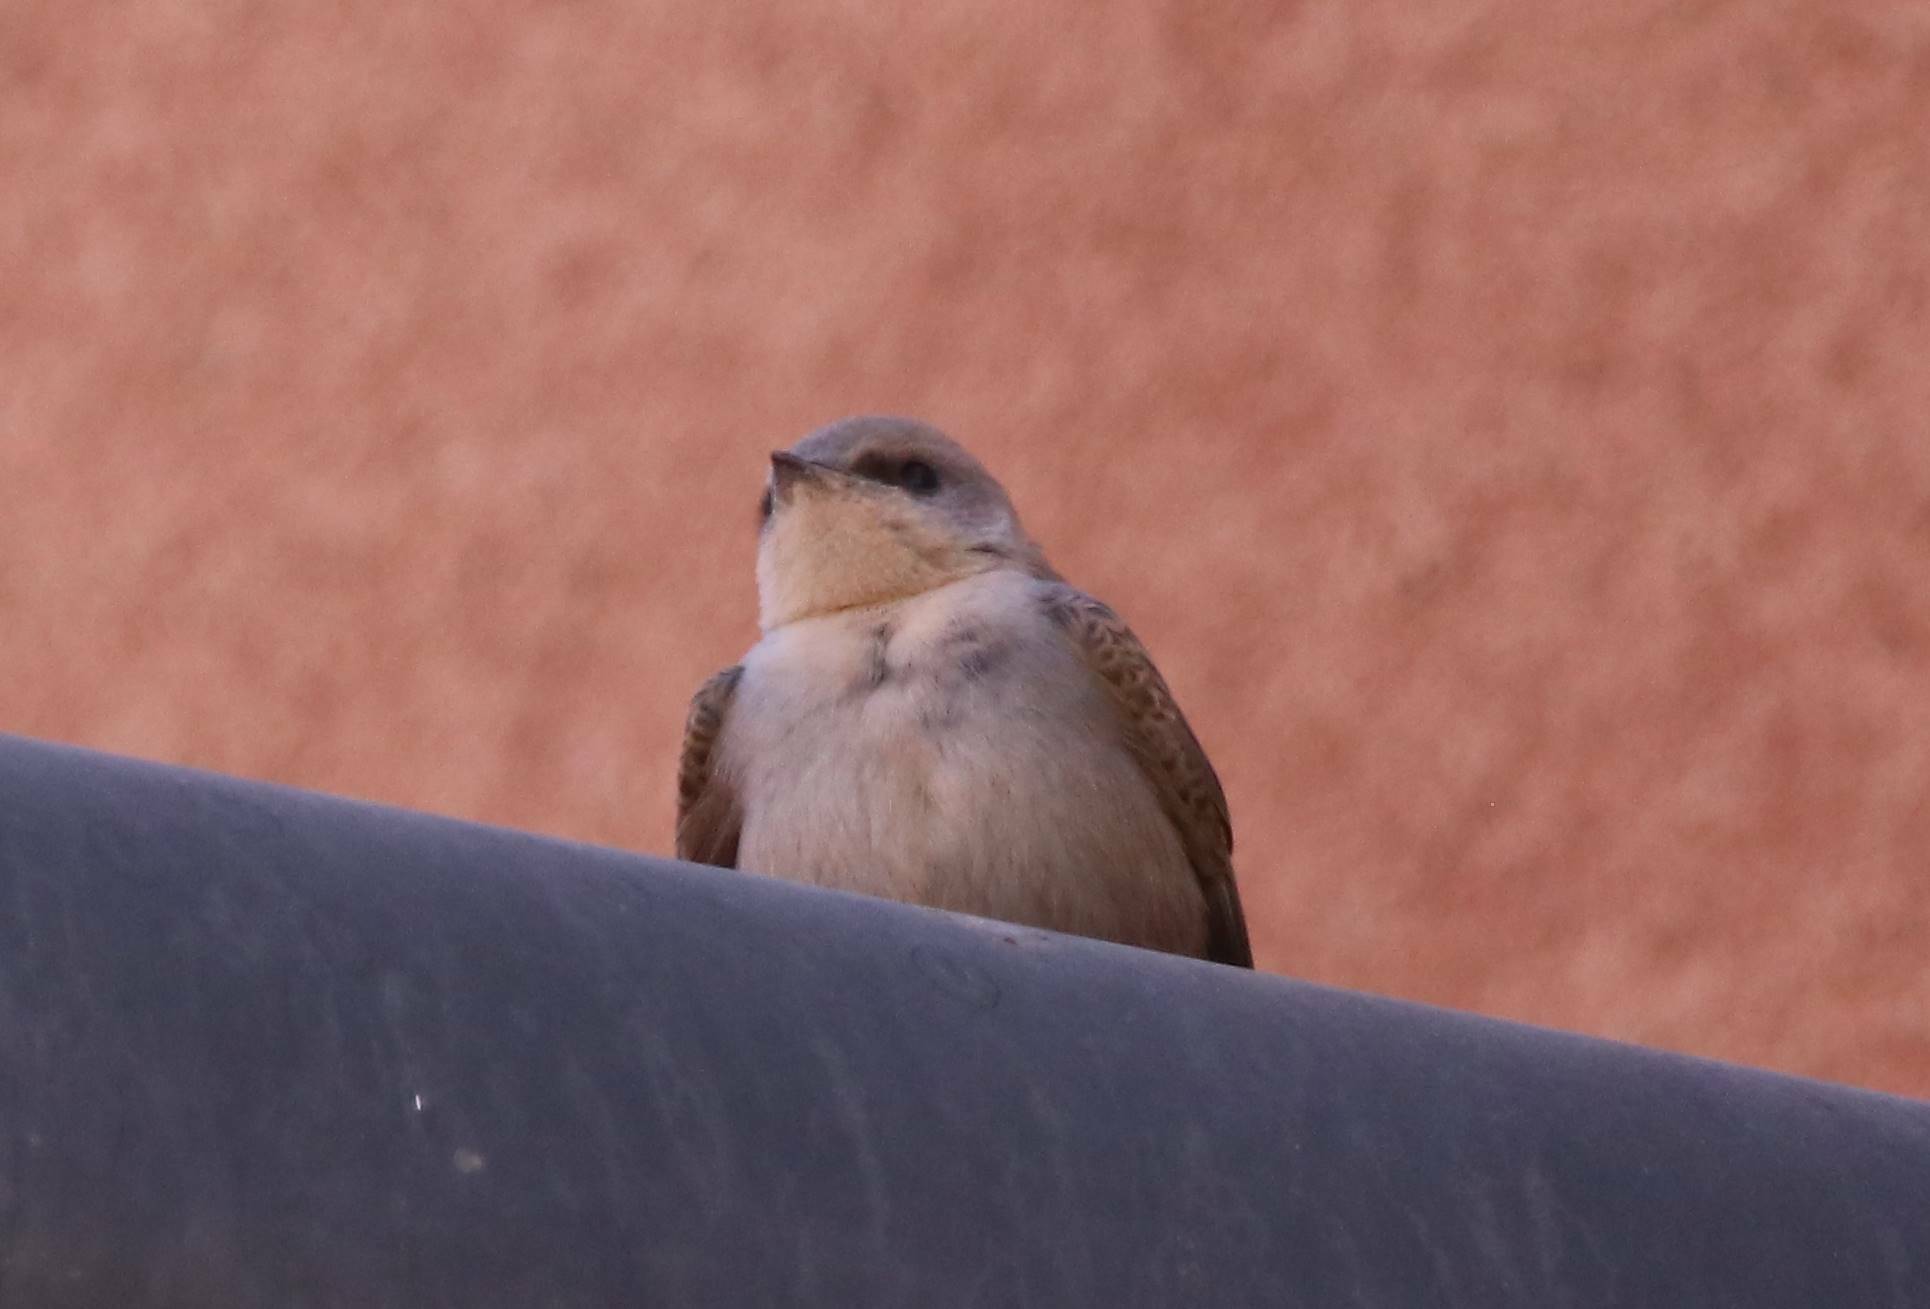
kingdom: Animalia
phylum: Chordata
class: Aves
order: Passeriformes
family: Hirundinidae
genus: Ptyonoprogne
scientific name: Ptyonoprogne fuligula
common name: Rock martin
